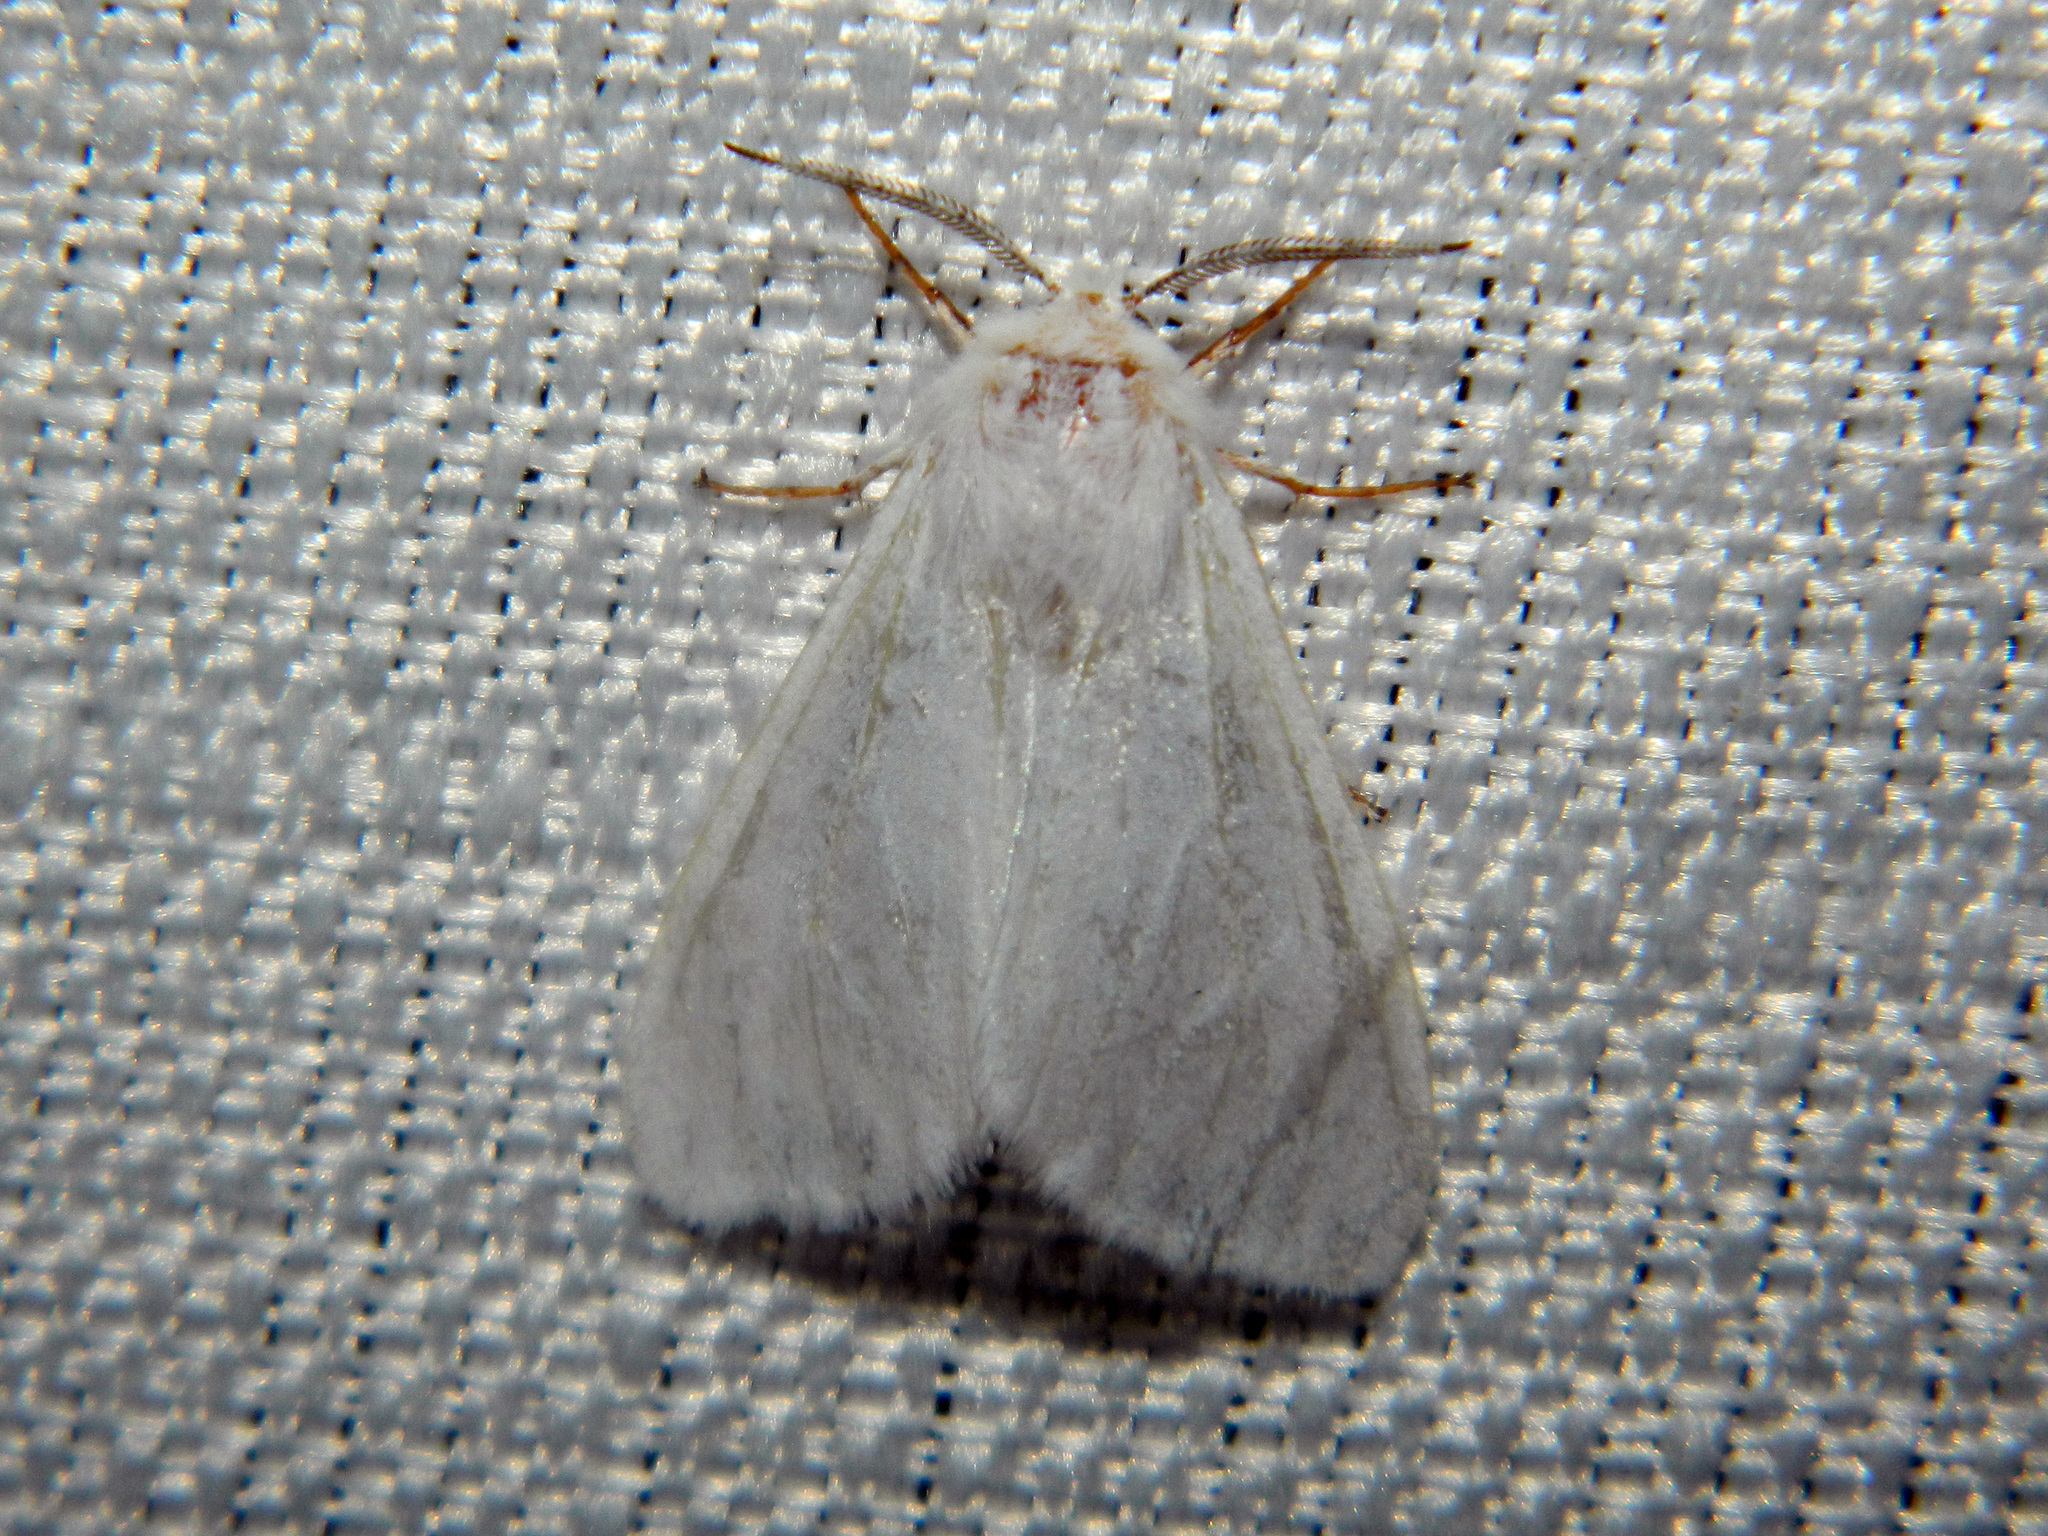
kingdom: Animalia
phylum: Arthropoda
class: Insecta
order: Lepidoptera
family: Erebidae
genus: Hyphantria
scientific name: Hyphantria cunea
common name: American white moth
